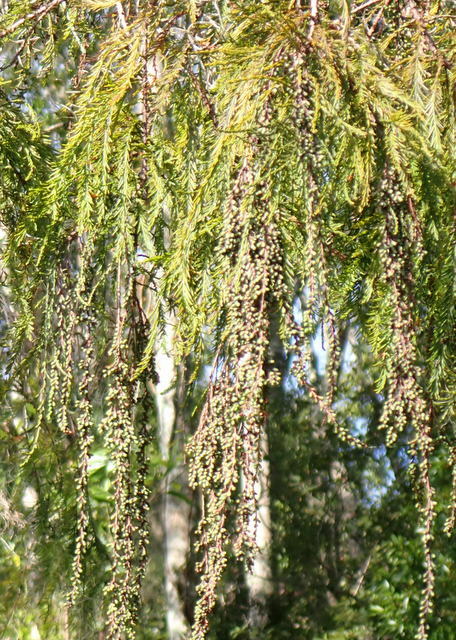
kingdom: Plantae
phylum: Tracheophyta
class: Pinopsida
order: Pinales
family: Cupressaceae
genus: Taxodium
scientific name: Taxodium distichum
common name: Bald cypress
